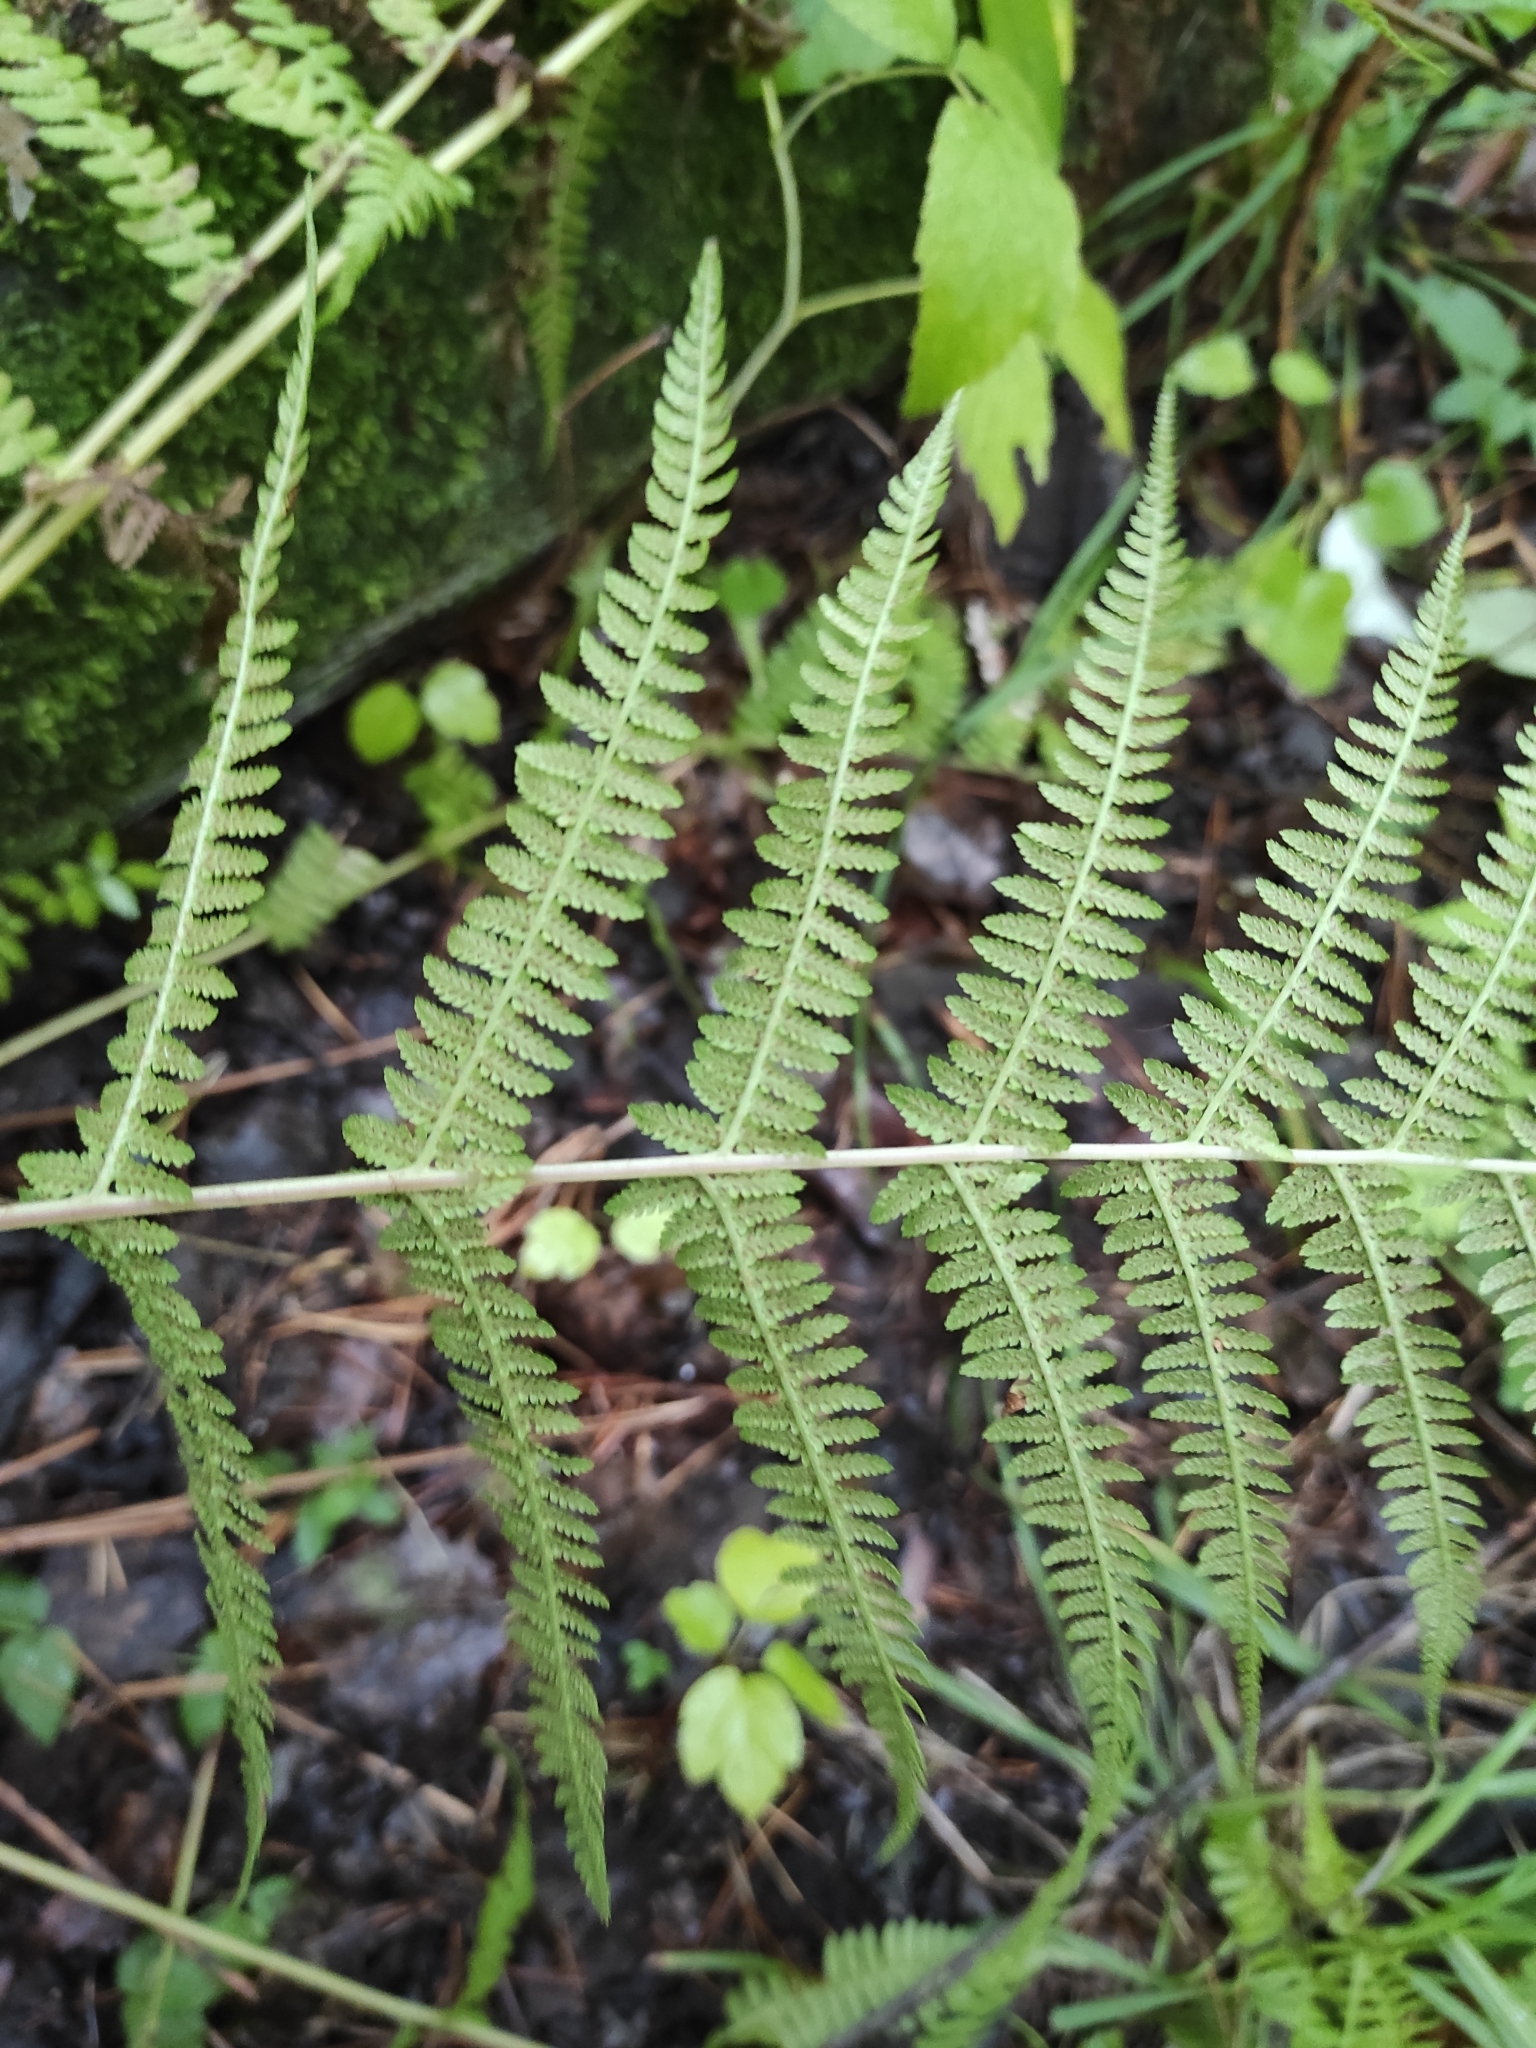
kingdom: Plantae
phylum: Tracheophyta
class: Polypodiopsida
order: Polypodiales
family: Athyriaceae
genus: Athyrium
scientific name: Athyrium filix-femina
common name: Lady fern
